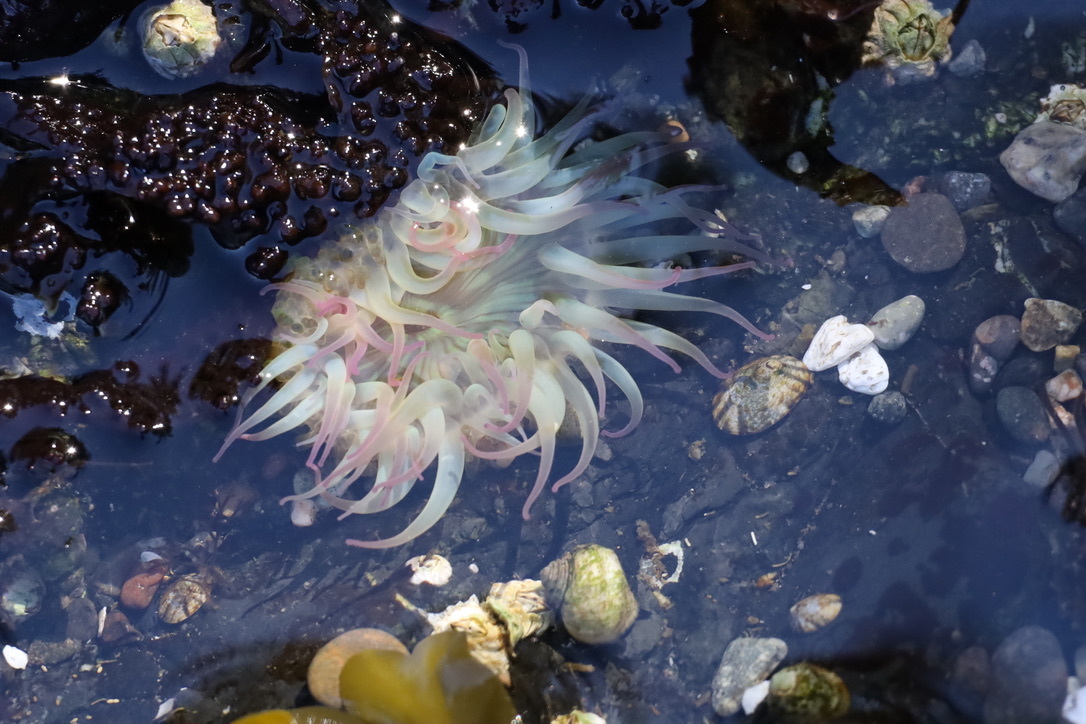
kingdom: Animalia
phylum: Cnidaria
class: Anthozoa
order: Actiniaria
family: Actiniidae
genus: Anthopleura
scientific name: Anthopleura elegantissima
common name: Clonal anemone
